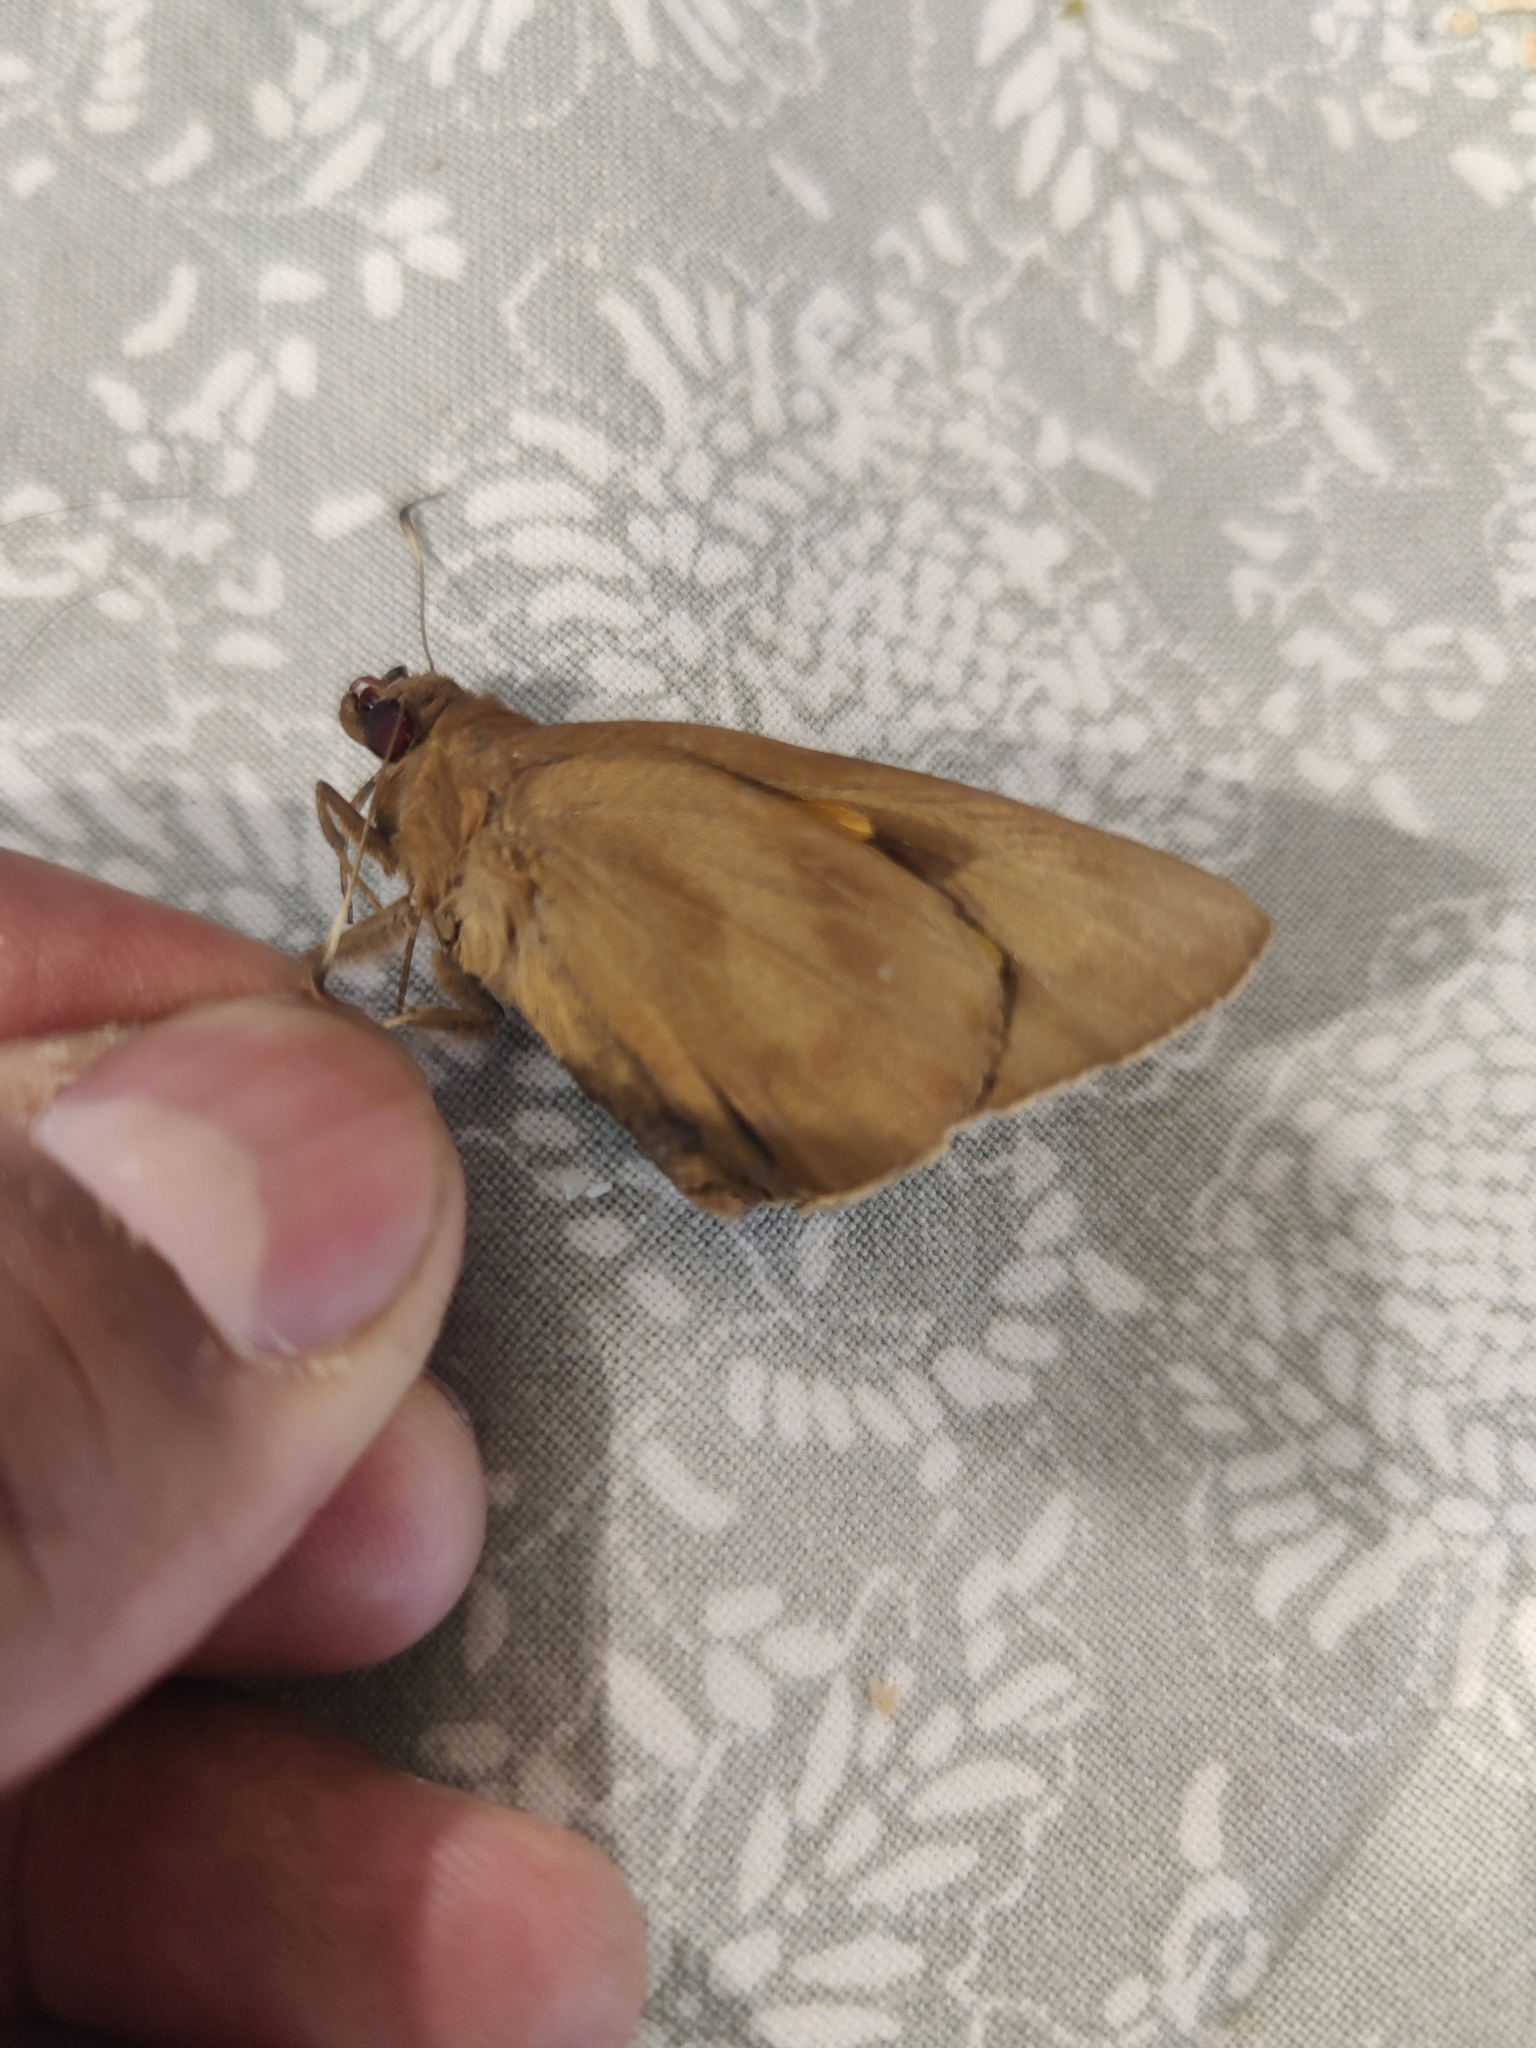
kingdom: Animalia
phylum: Arthropoda
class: Insecta
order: Lepidoptera
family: Hesperiidae
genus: Erionota
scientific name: Erionota torus
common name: Rounded palm-redeye
